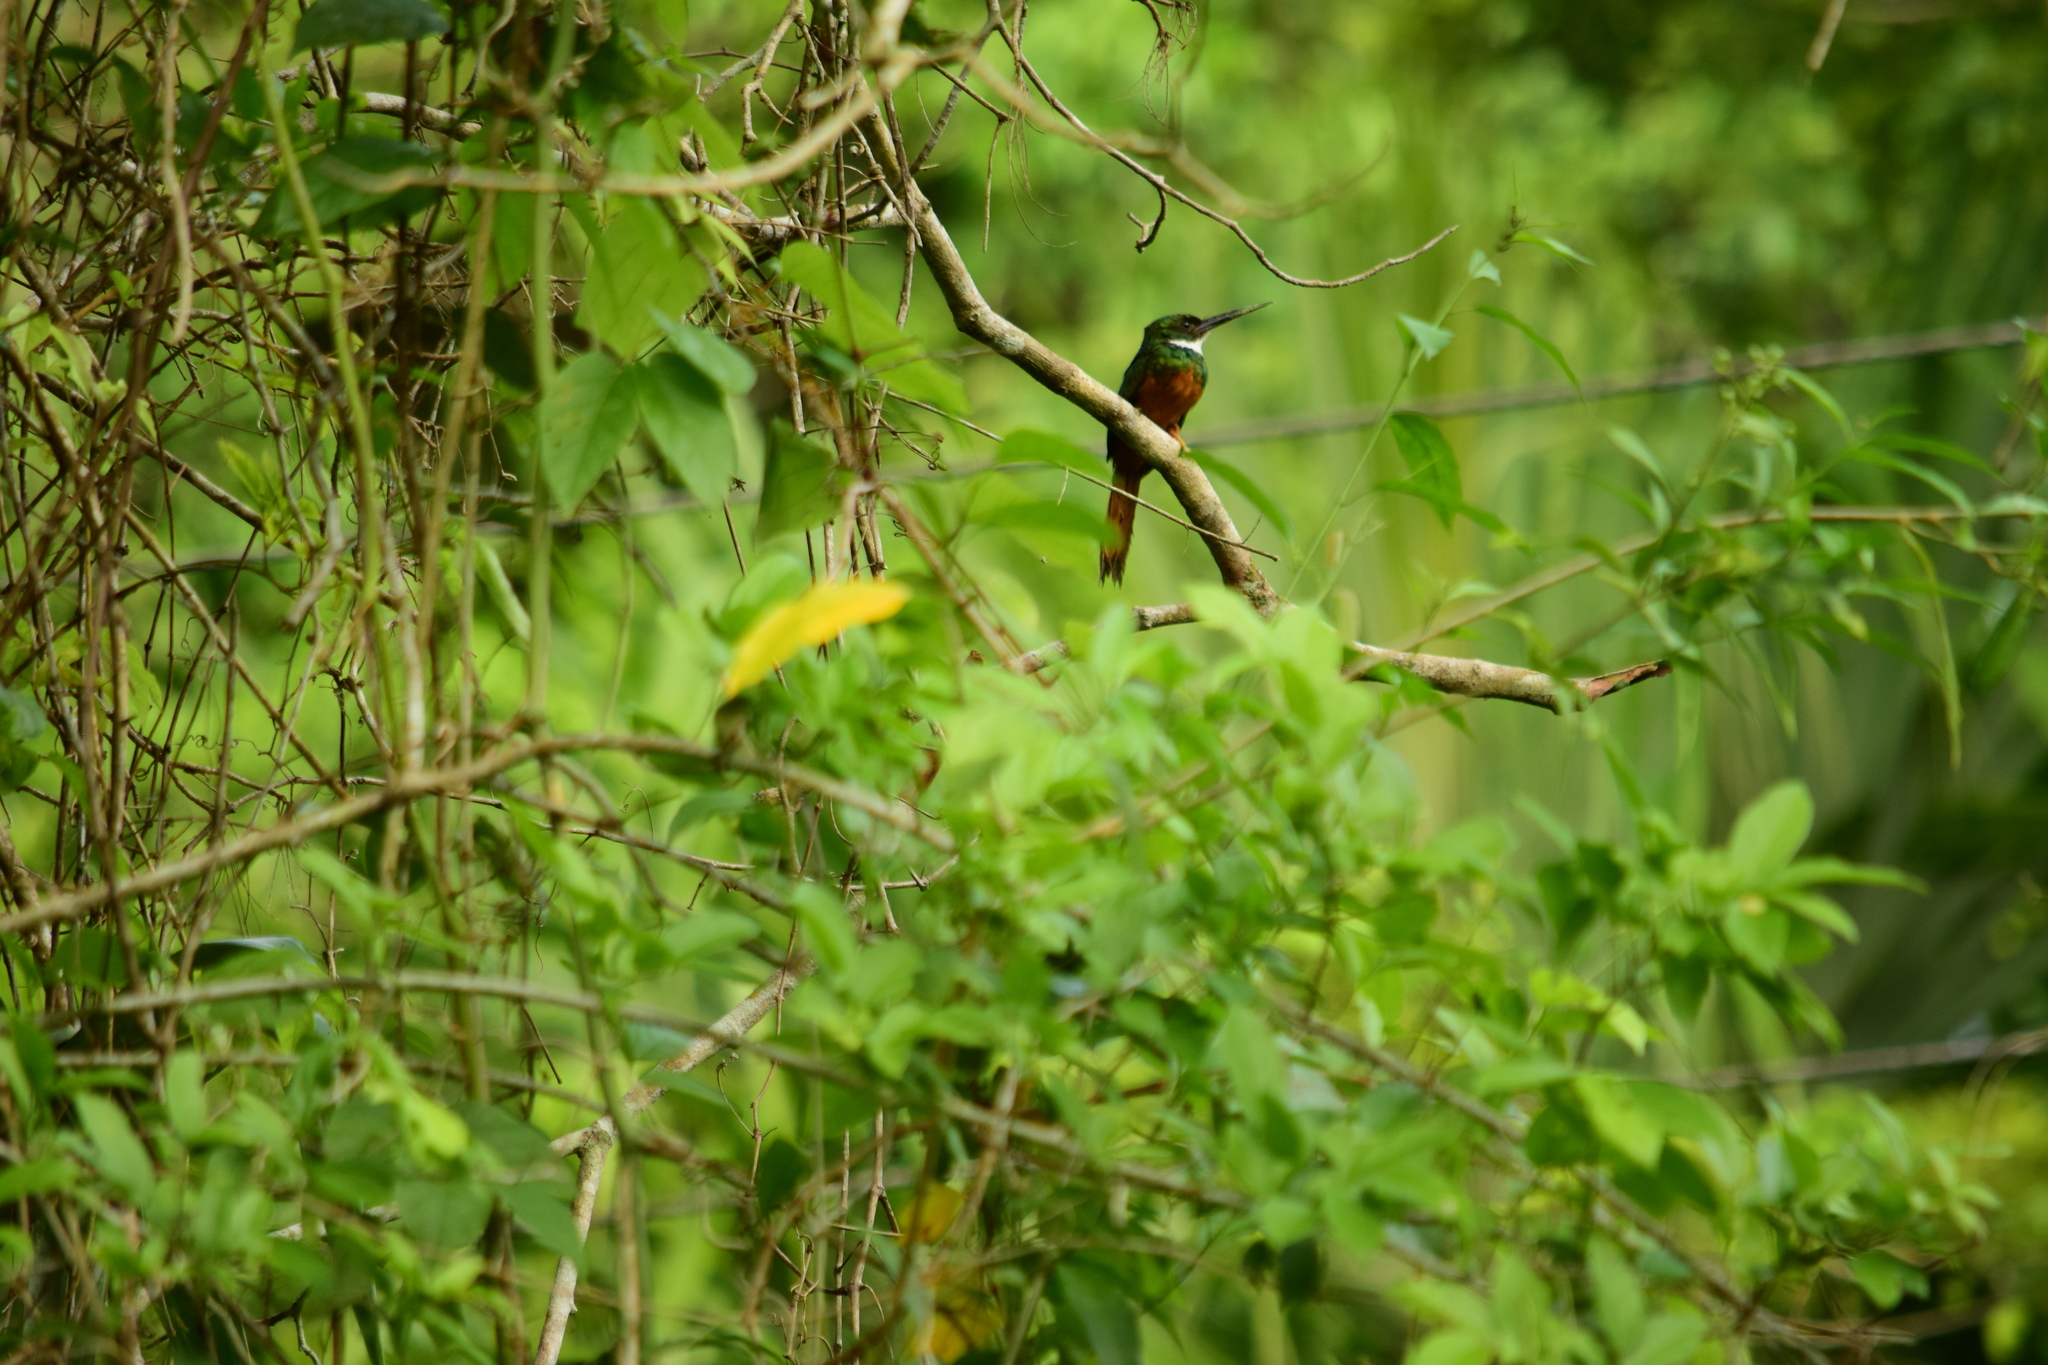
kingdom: Animalia
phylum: Chordata
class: Aves
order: Piciformes
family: Galbulidae
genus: Galbula
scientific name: Galbula ruficauda
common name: Rufous-tailed jacamar
